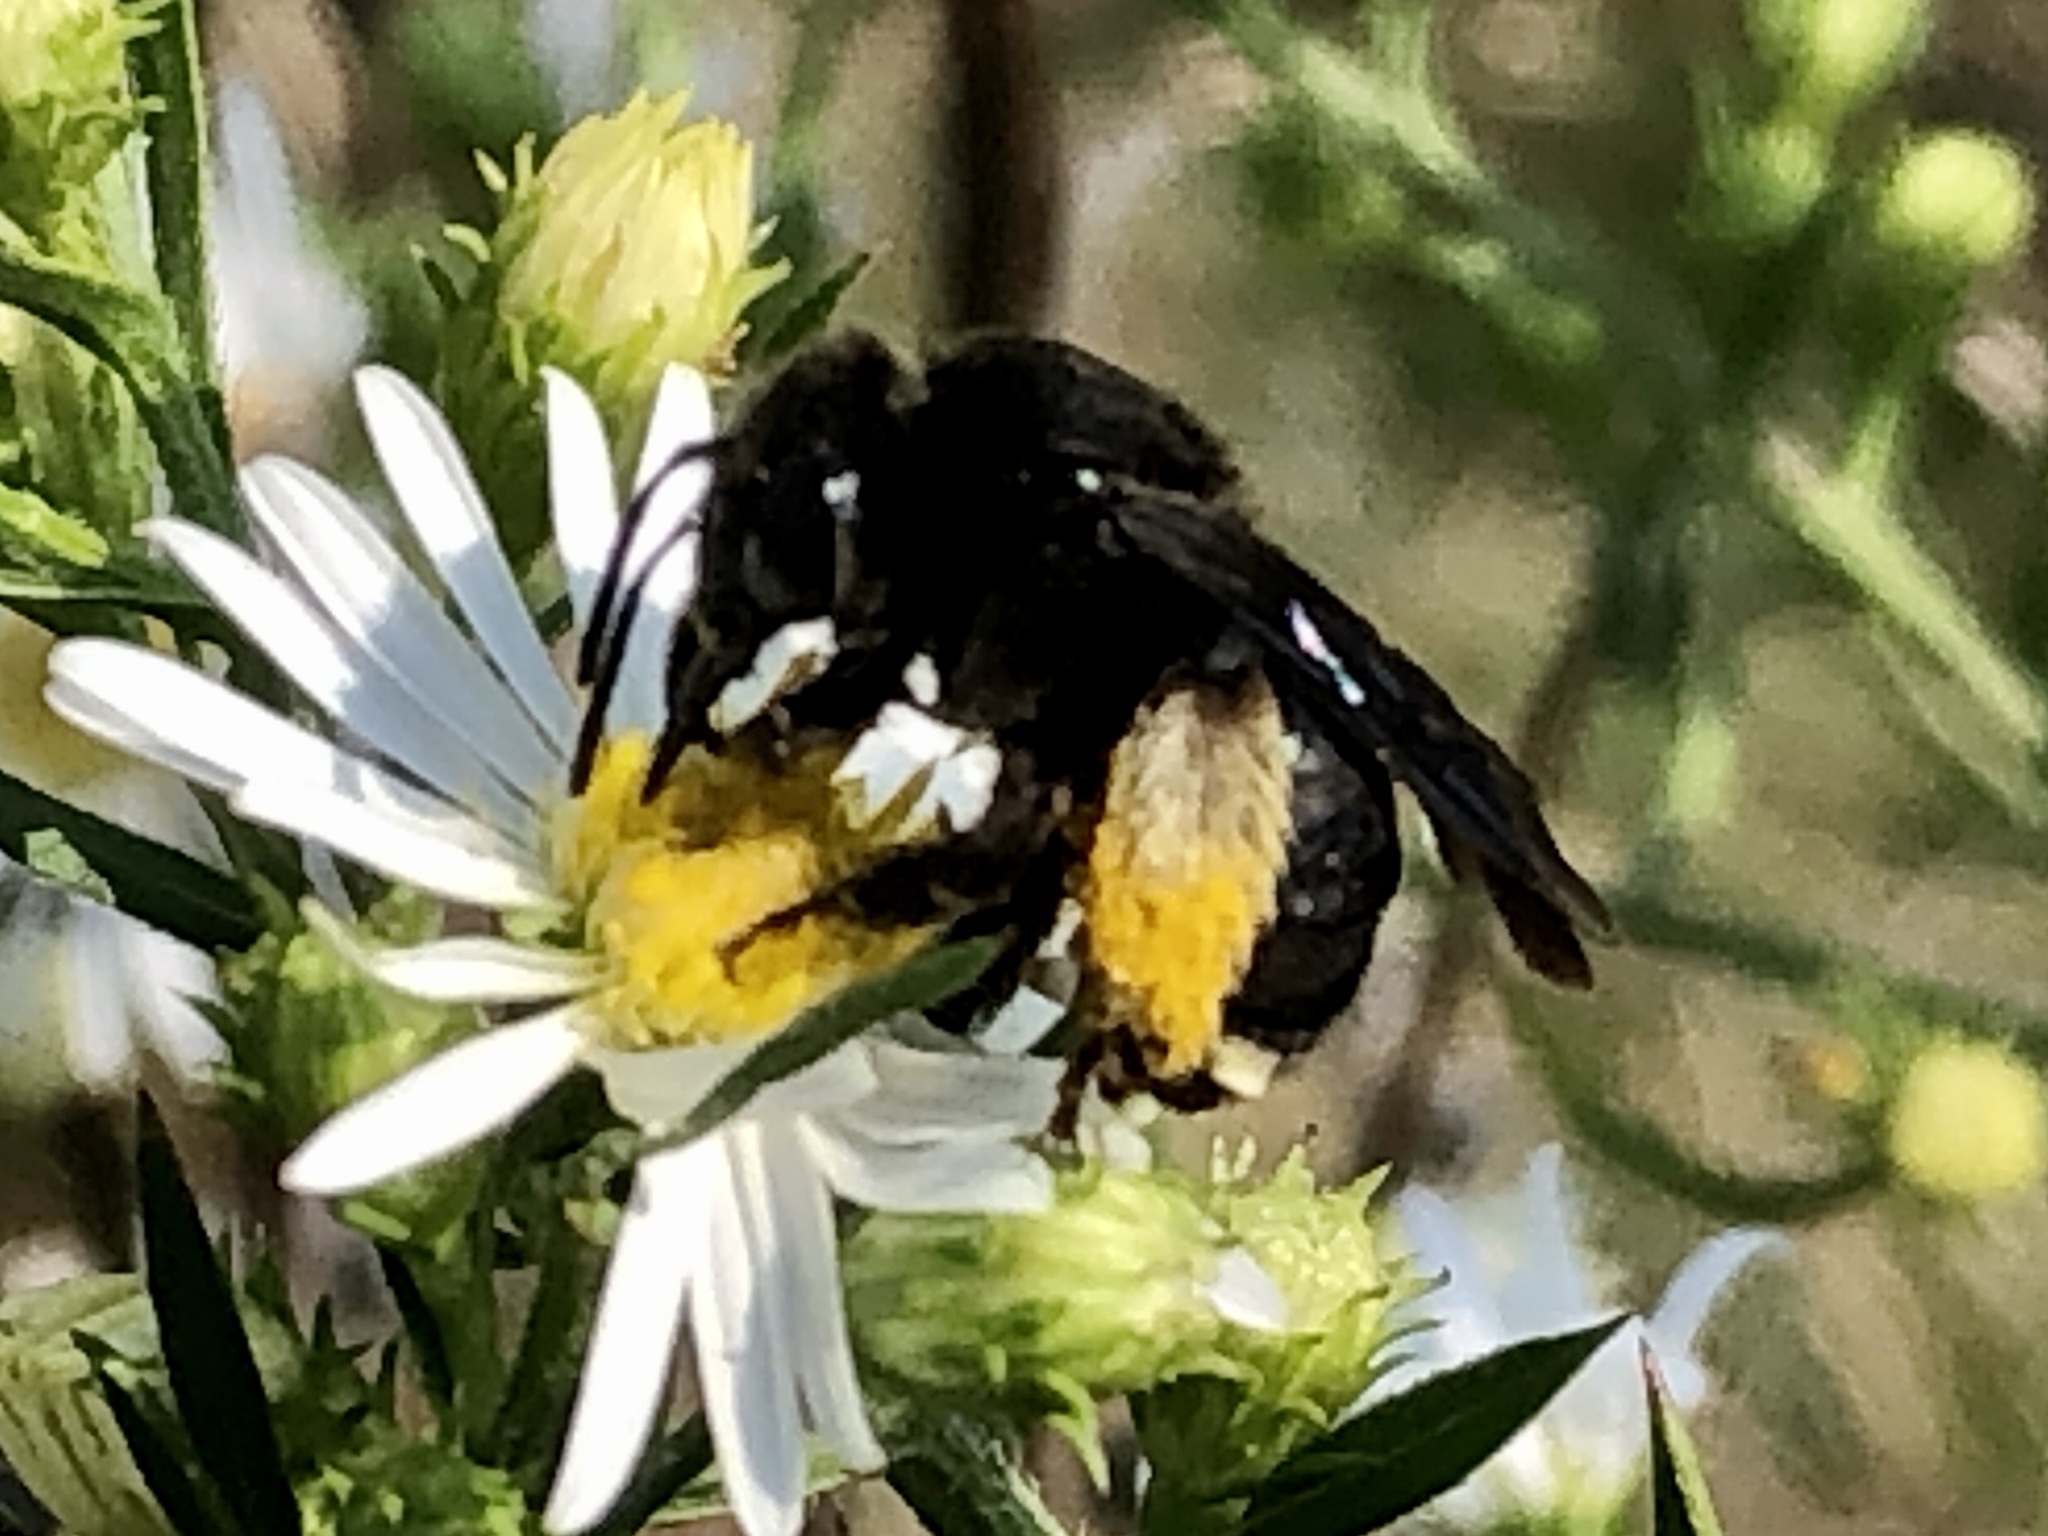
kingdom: Animalia
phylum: Arthropoda
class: Insecta
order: Hymenoptera
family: Apidae
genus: Melissodes
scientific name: Melissodes bimaculatus
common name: Two-spotted long-horned bee
